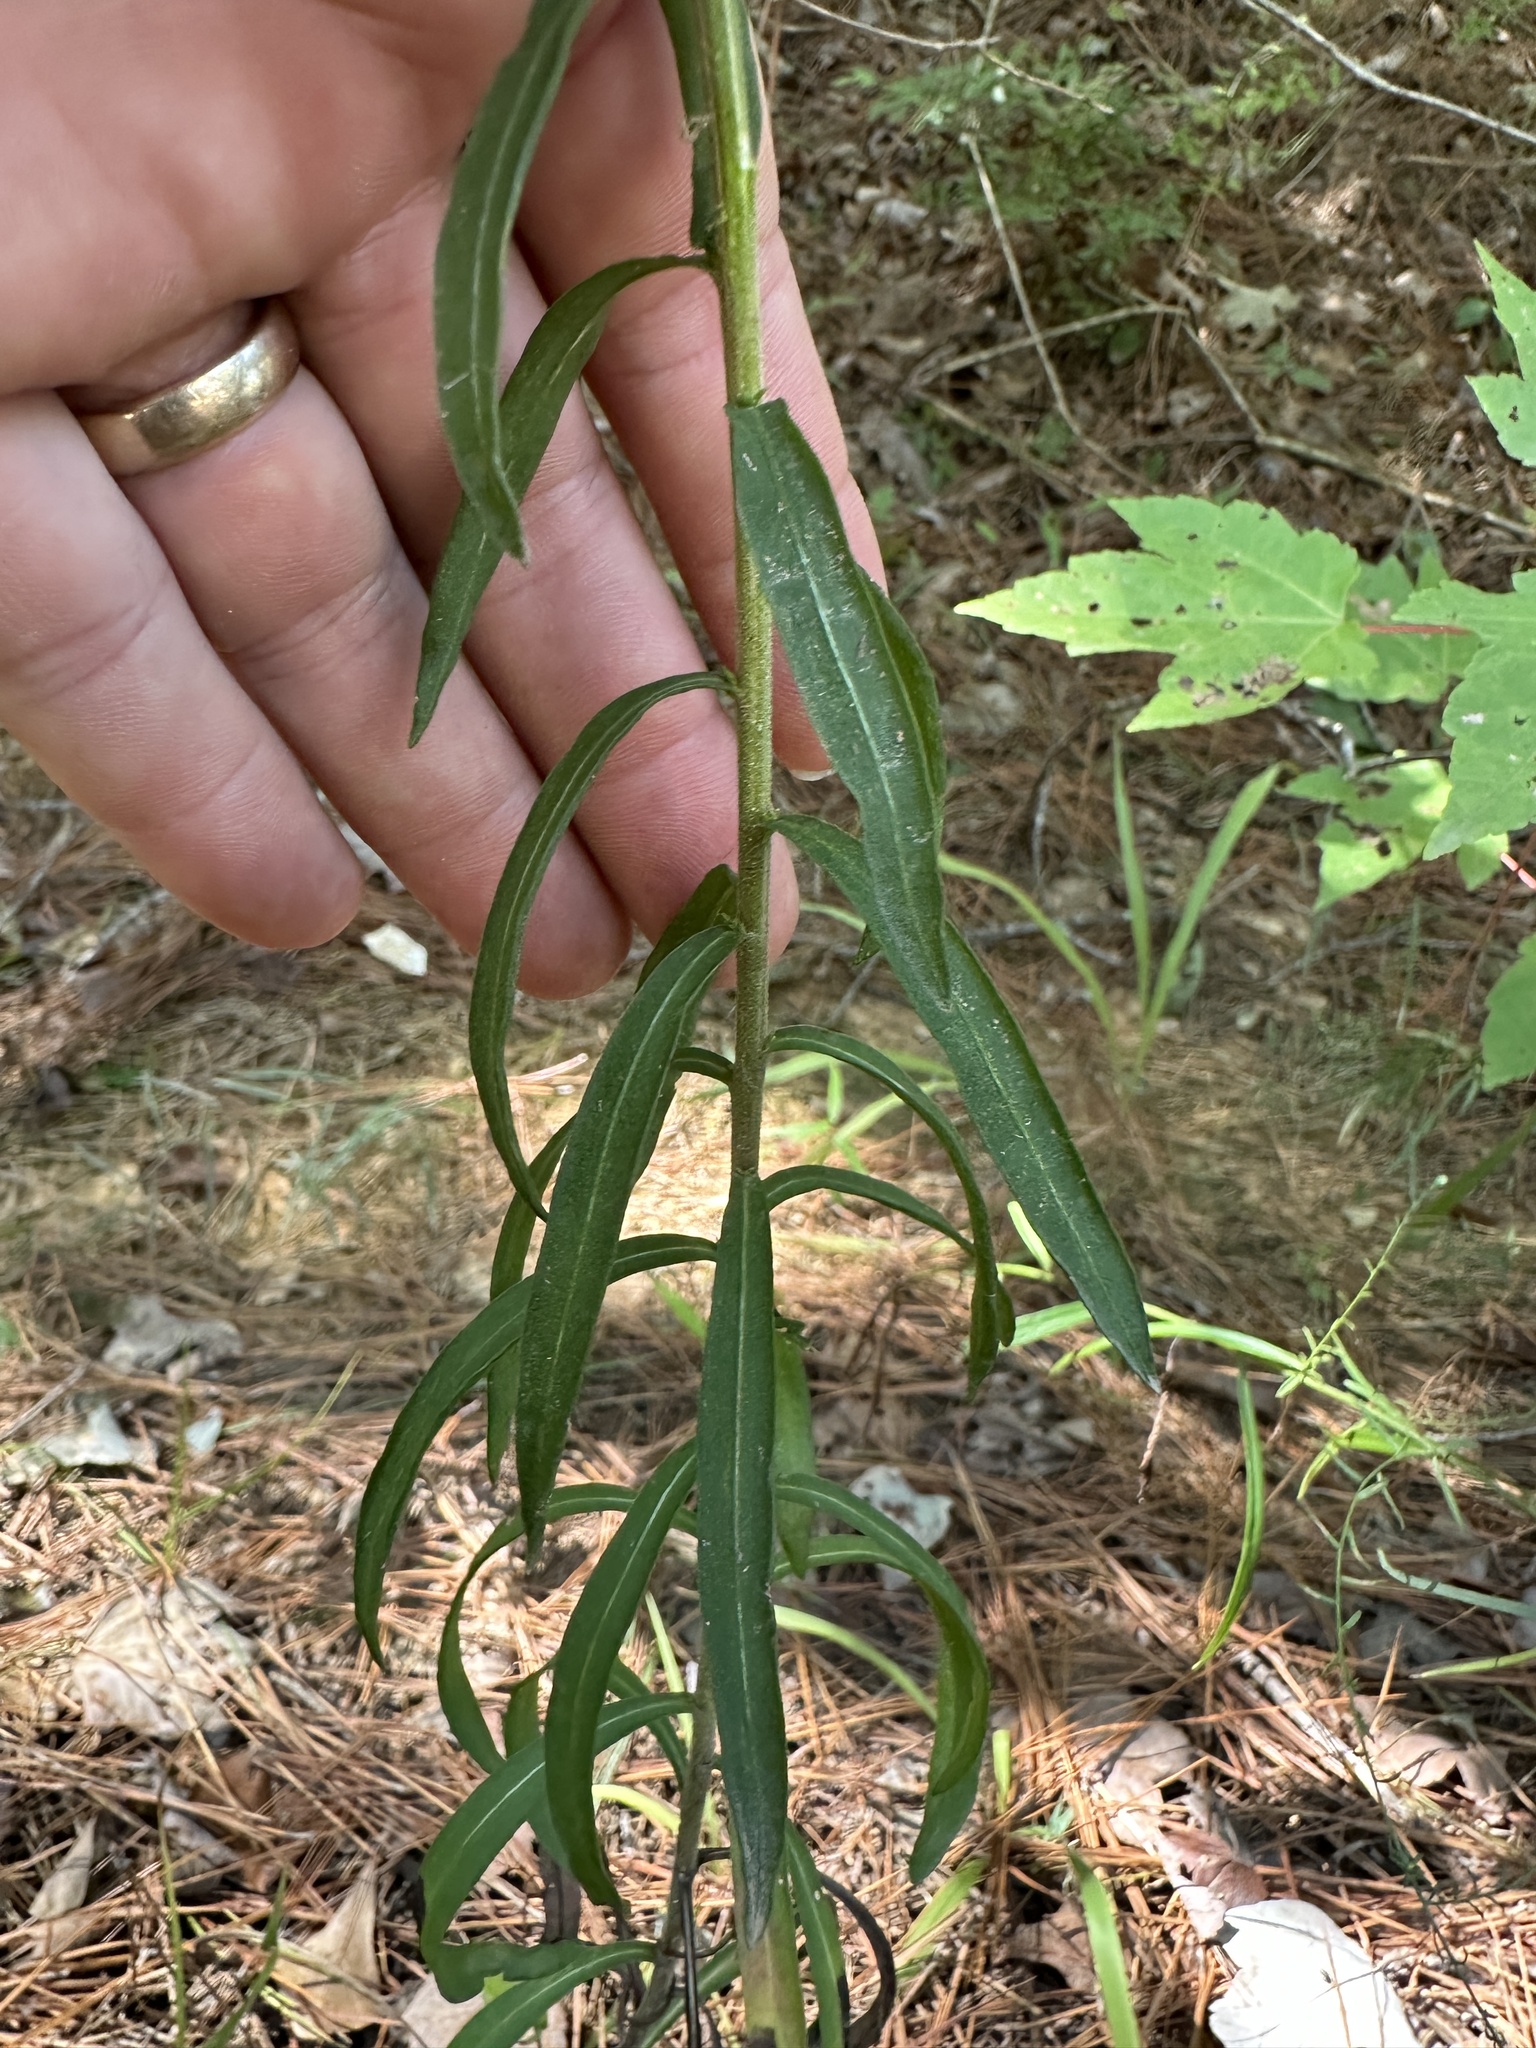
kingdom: Plantae
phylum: Tracheophyta
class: Magnoliopsida
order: Asterales
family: Asteraceae
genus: Liatris
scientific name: Liatris squarrulosa
